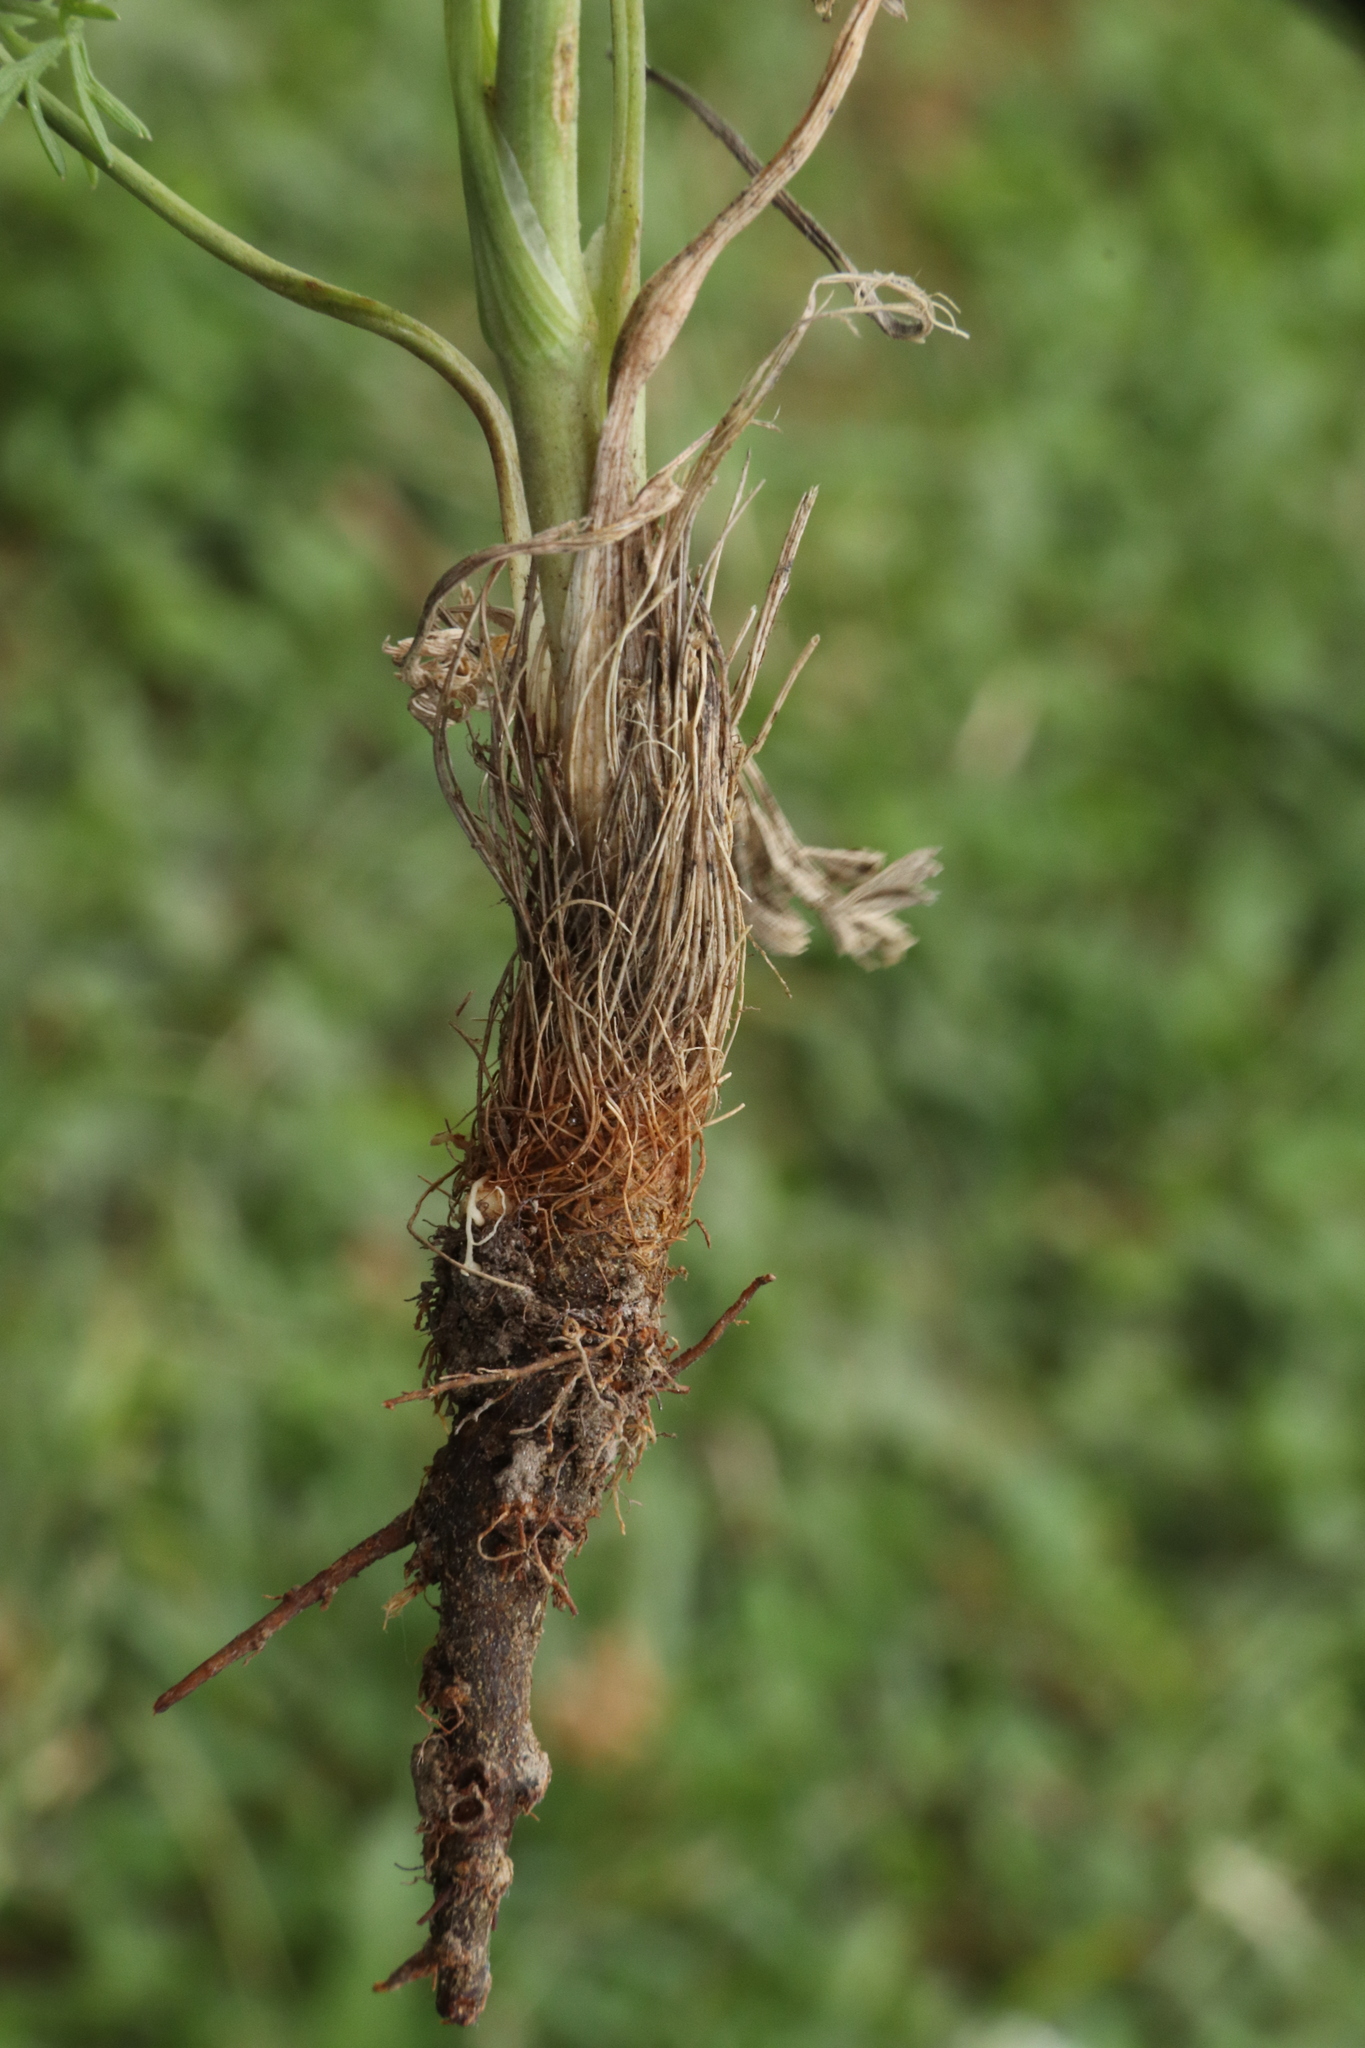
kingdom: Plantae
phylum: Tracheophyta
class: Magnoliopsida
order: Apiales
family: Apiaceae
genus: Seseli
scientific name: Seseli annuum
